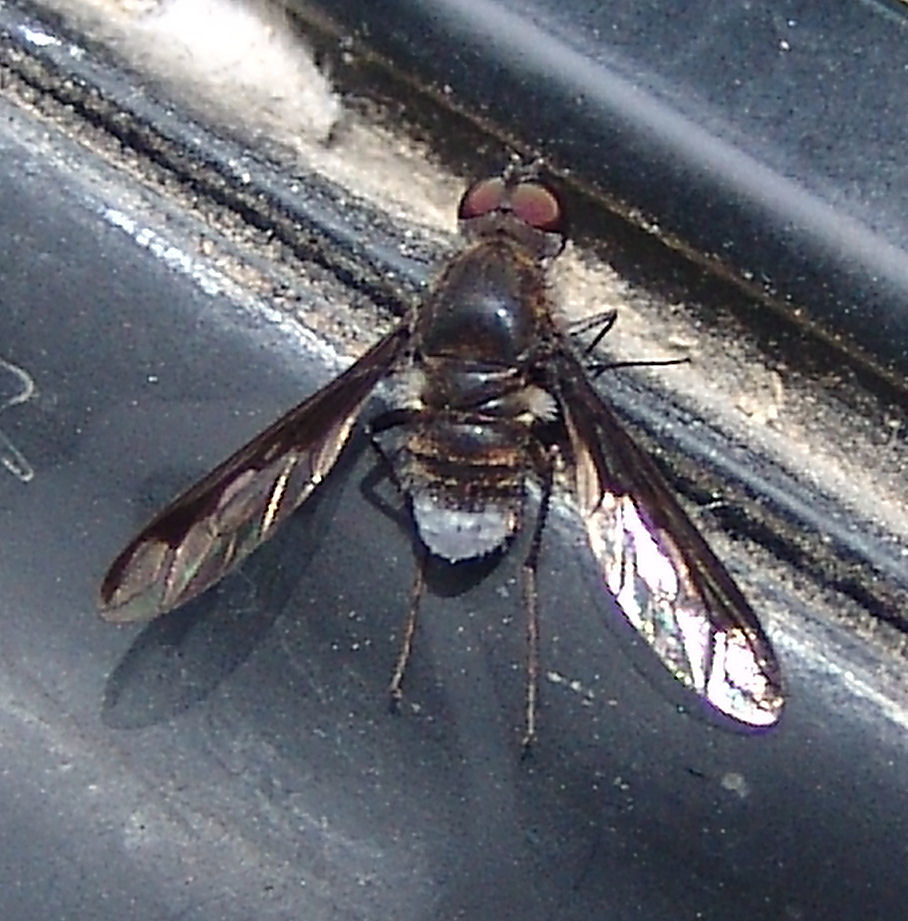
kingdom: Animalia
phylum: Arthropoda
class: Insecta
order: Diptera
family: Bombyliidae
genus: Anthrax
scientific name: Anthrax argyropygus
